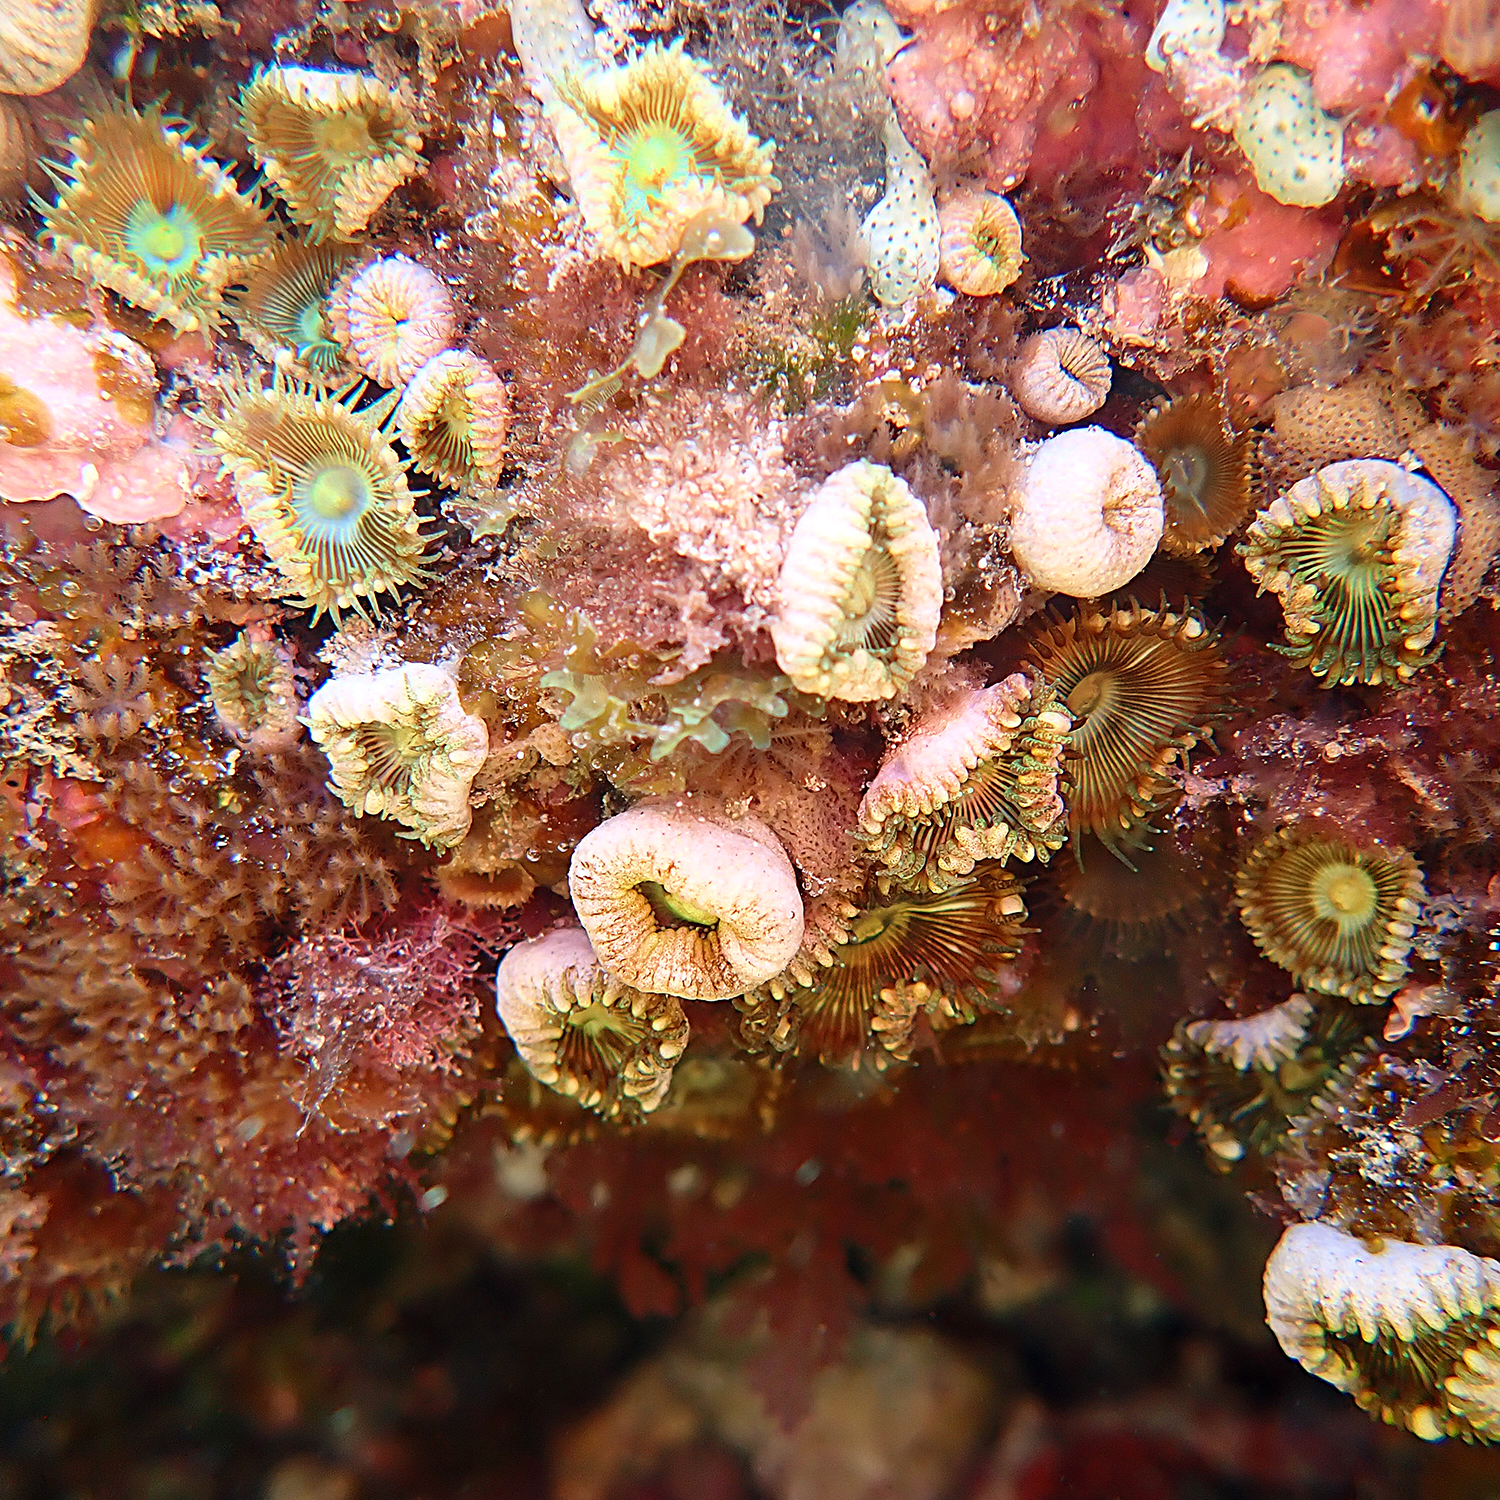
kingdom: Animalia
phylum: Cnidaria
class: Anthozoa
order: Zoantharia
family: Sphenopidae
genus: Palythoa
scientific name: Palythoa mutuki
